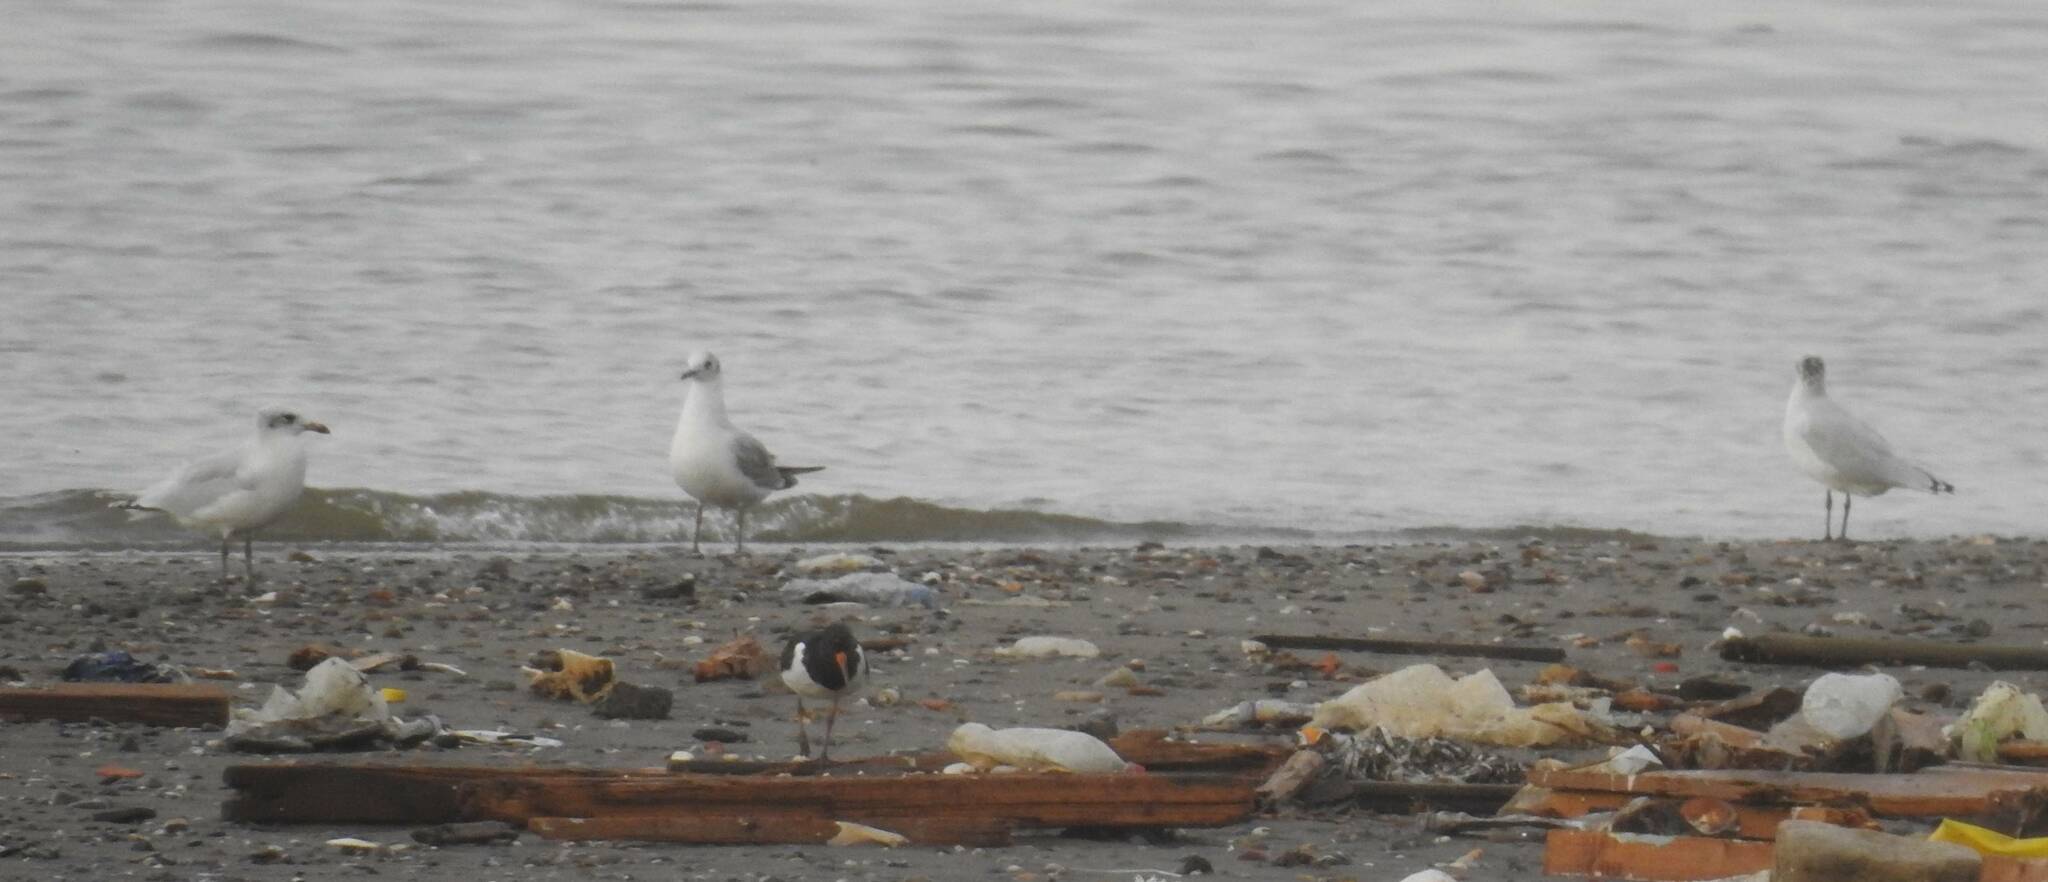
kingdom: Animalia
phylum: Chordata
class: Aves
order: Charadriiformes
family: Laridae
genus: Ichthyaetus
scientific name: Ichthyaetus melanocephalus
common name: Mediterranean gull
